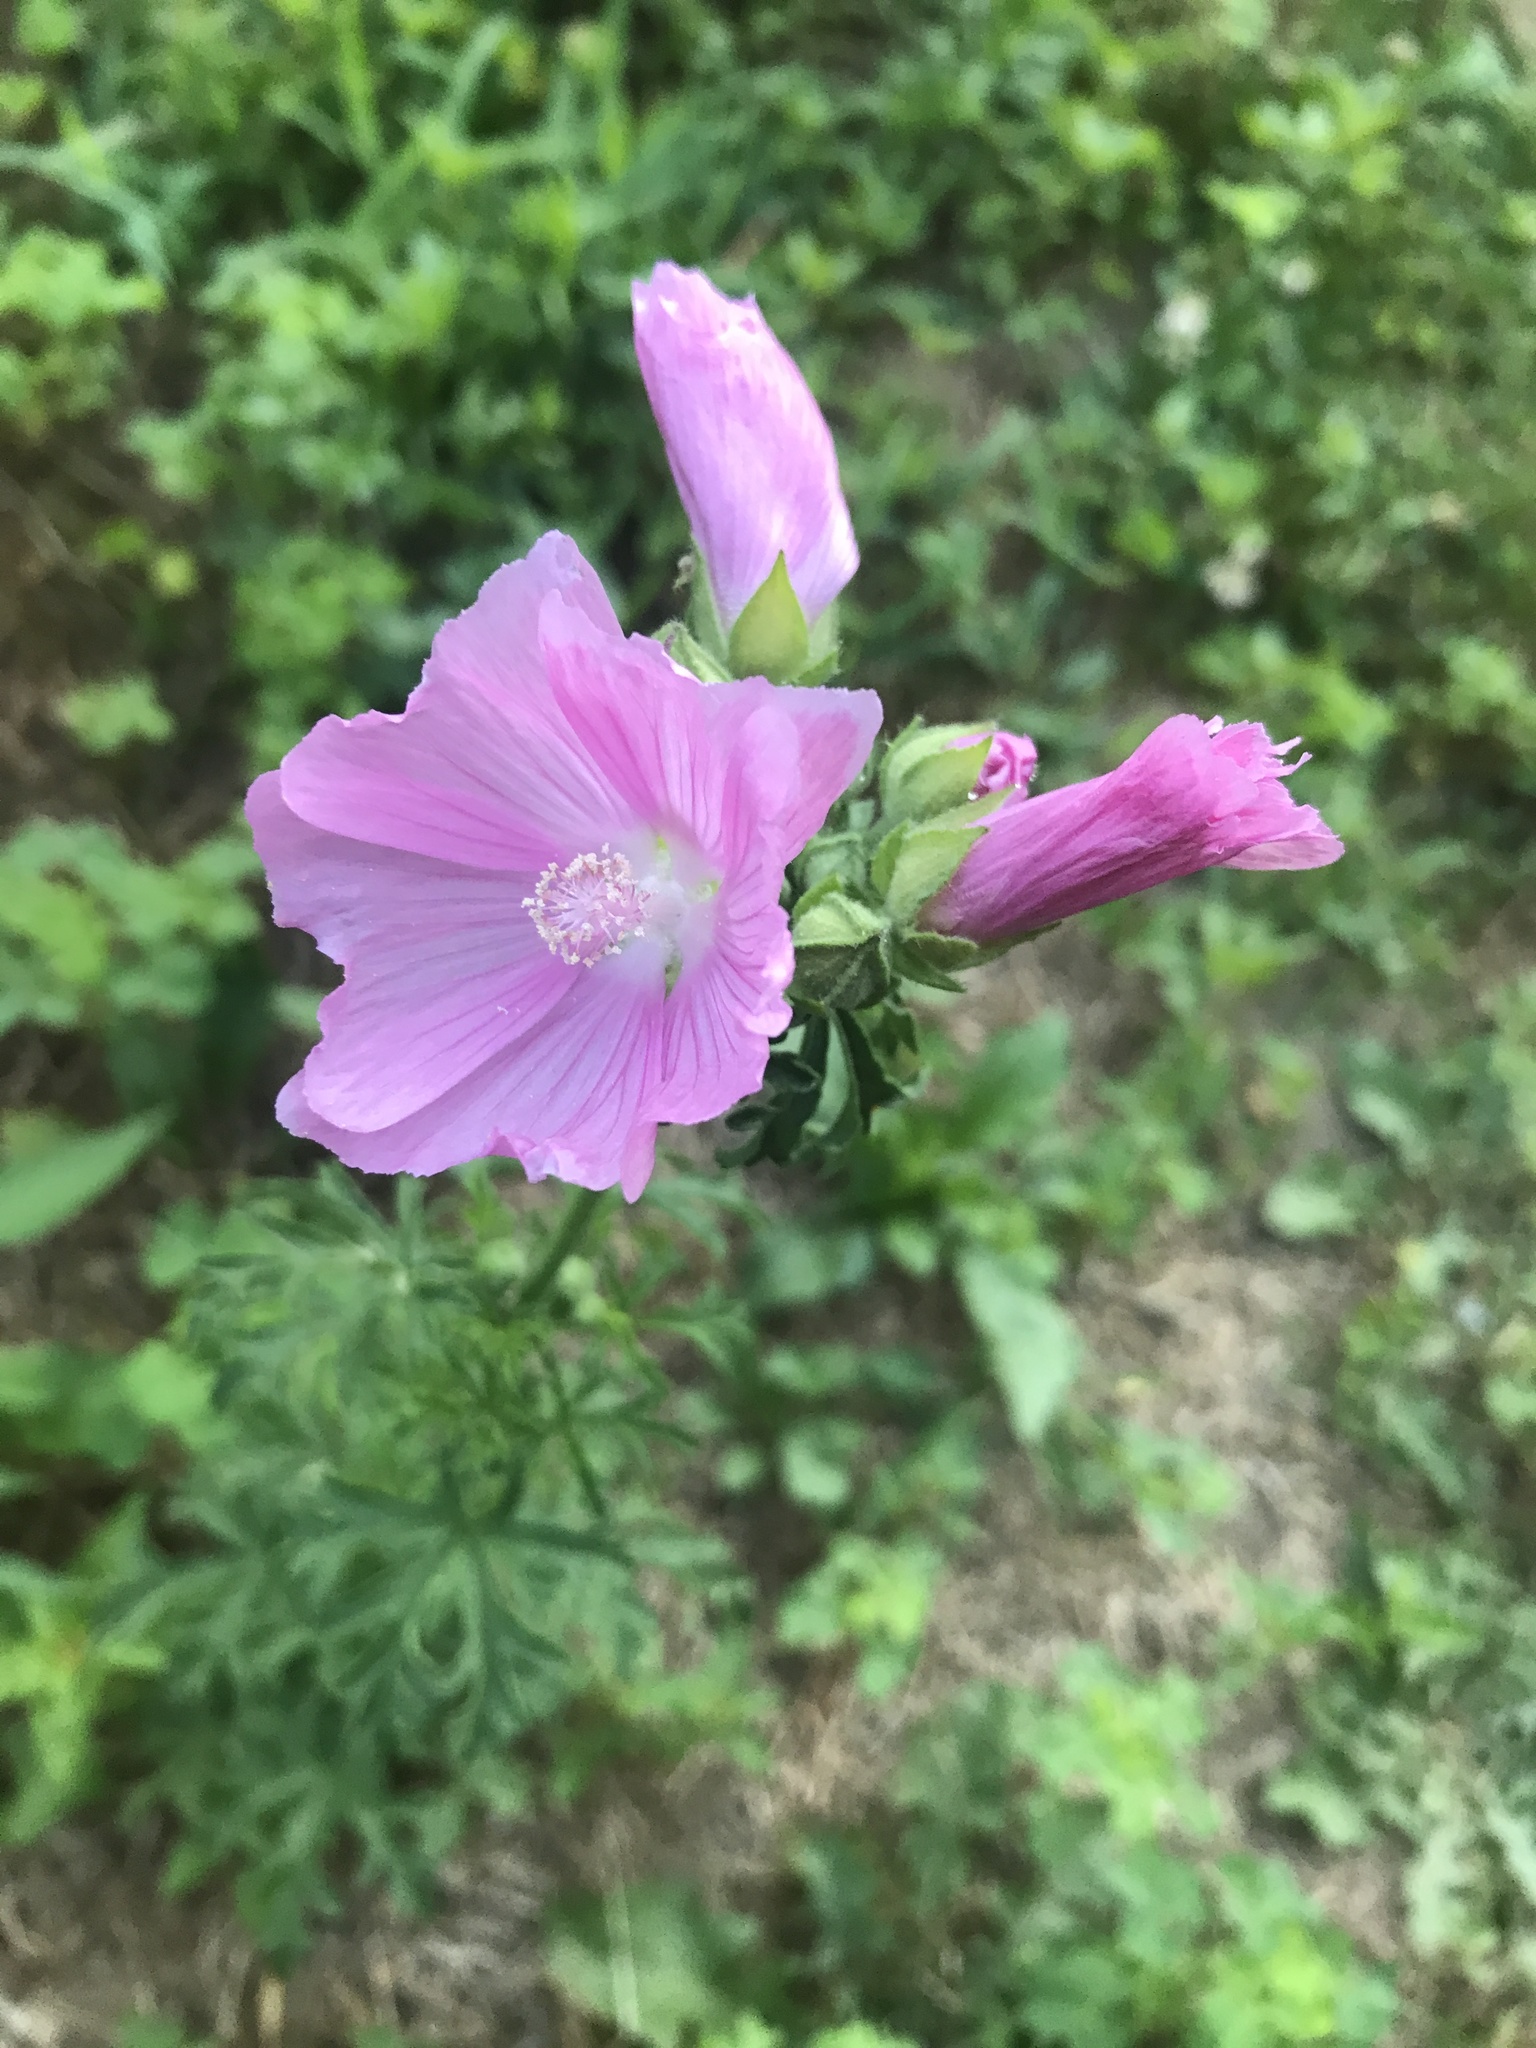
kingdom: Plantae
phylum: Tracheophyta
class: Magnoliopsida
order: Malvales
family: Malvaceae
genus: Malva
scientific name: Malva moschata
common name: Musk mallow
